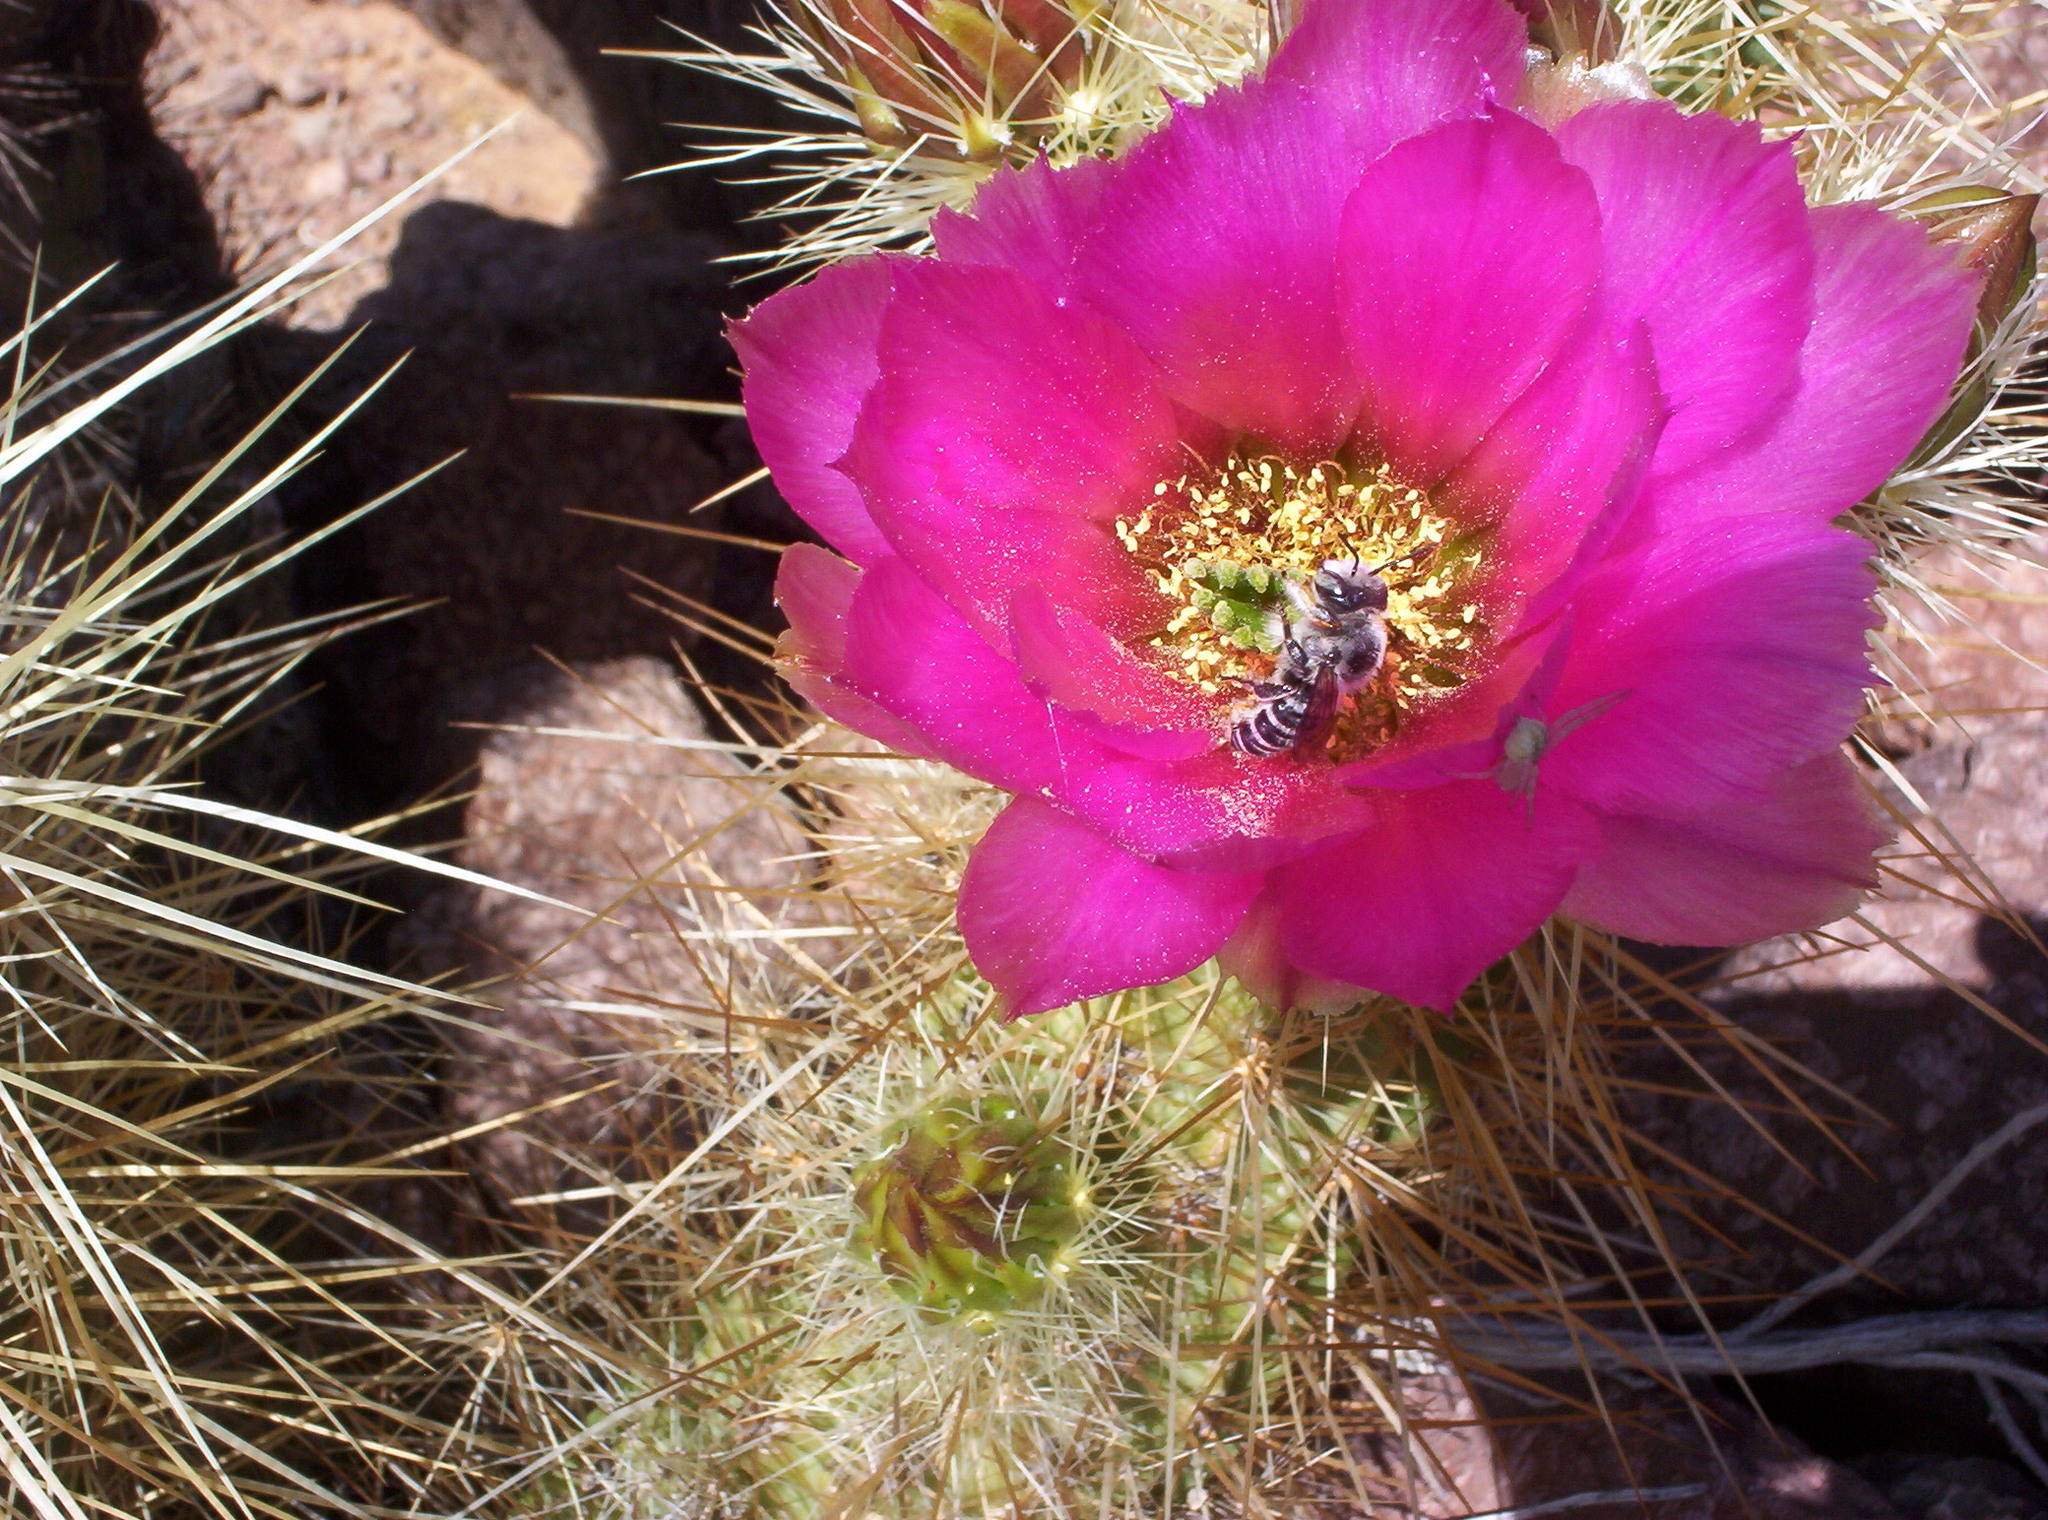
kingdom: Plantae
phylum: Tracheophyta
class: Magnoliopsida
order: Caryophyllales
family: Cactaceae
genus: Echinocereus
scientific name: Echinocereus nicholii
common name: Nichol's hedgehog cactus
